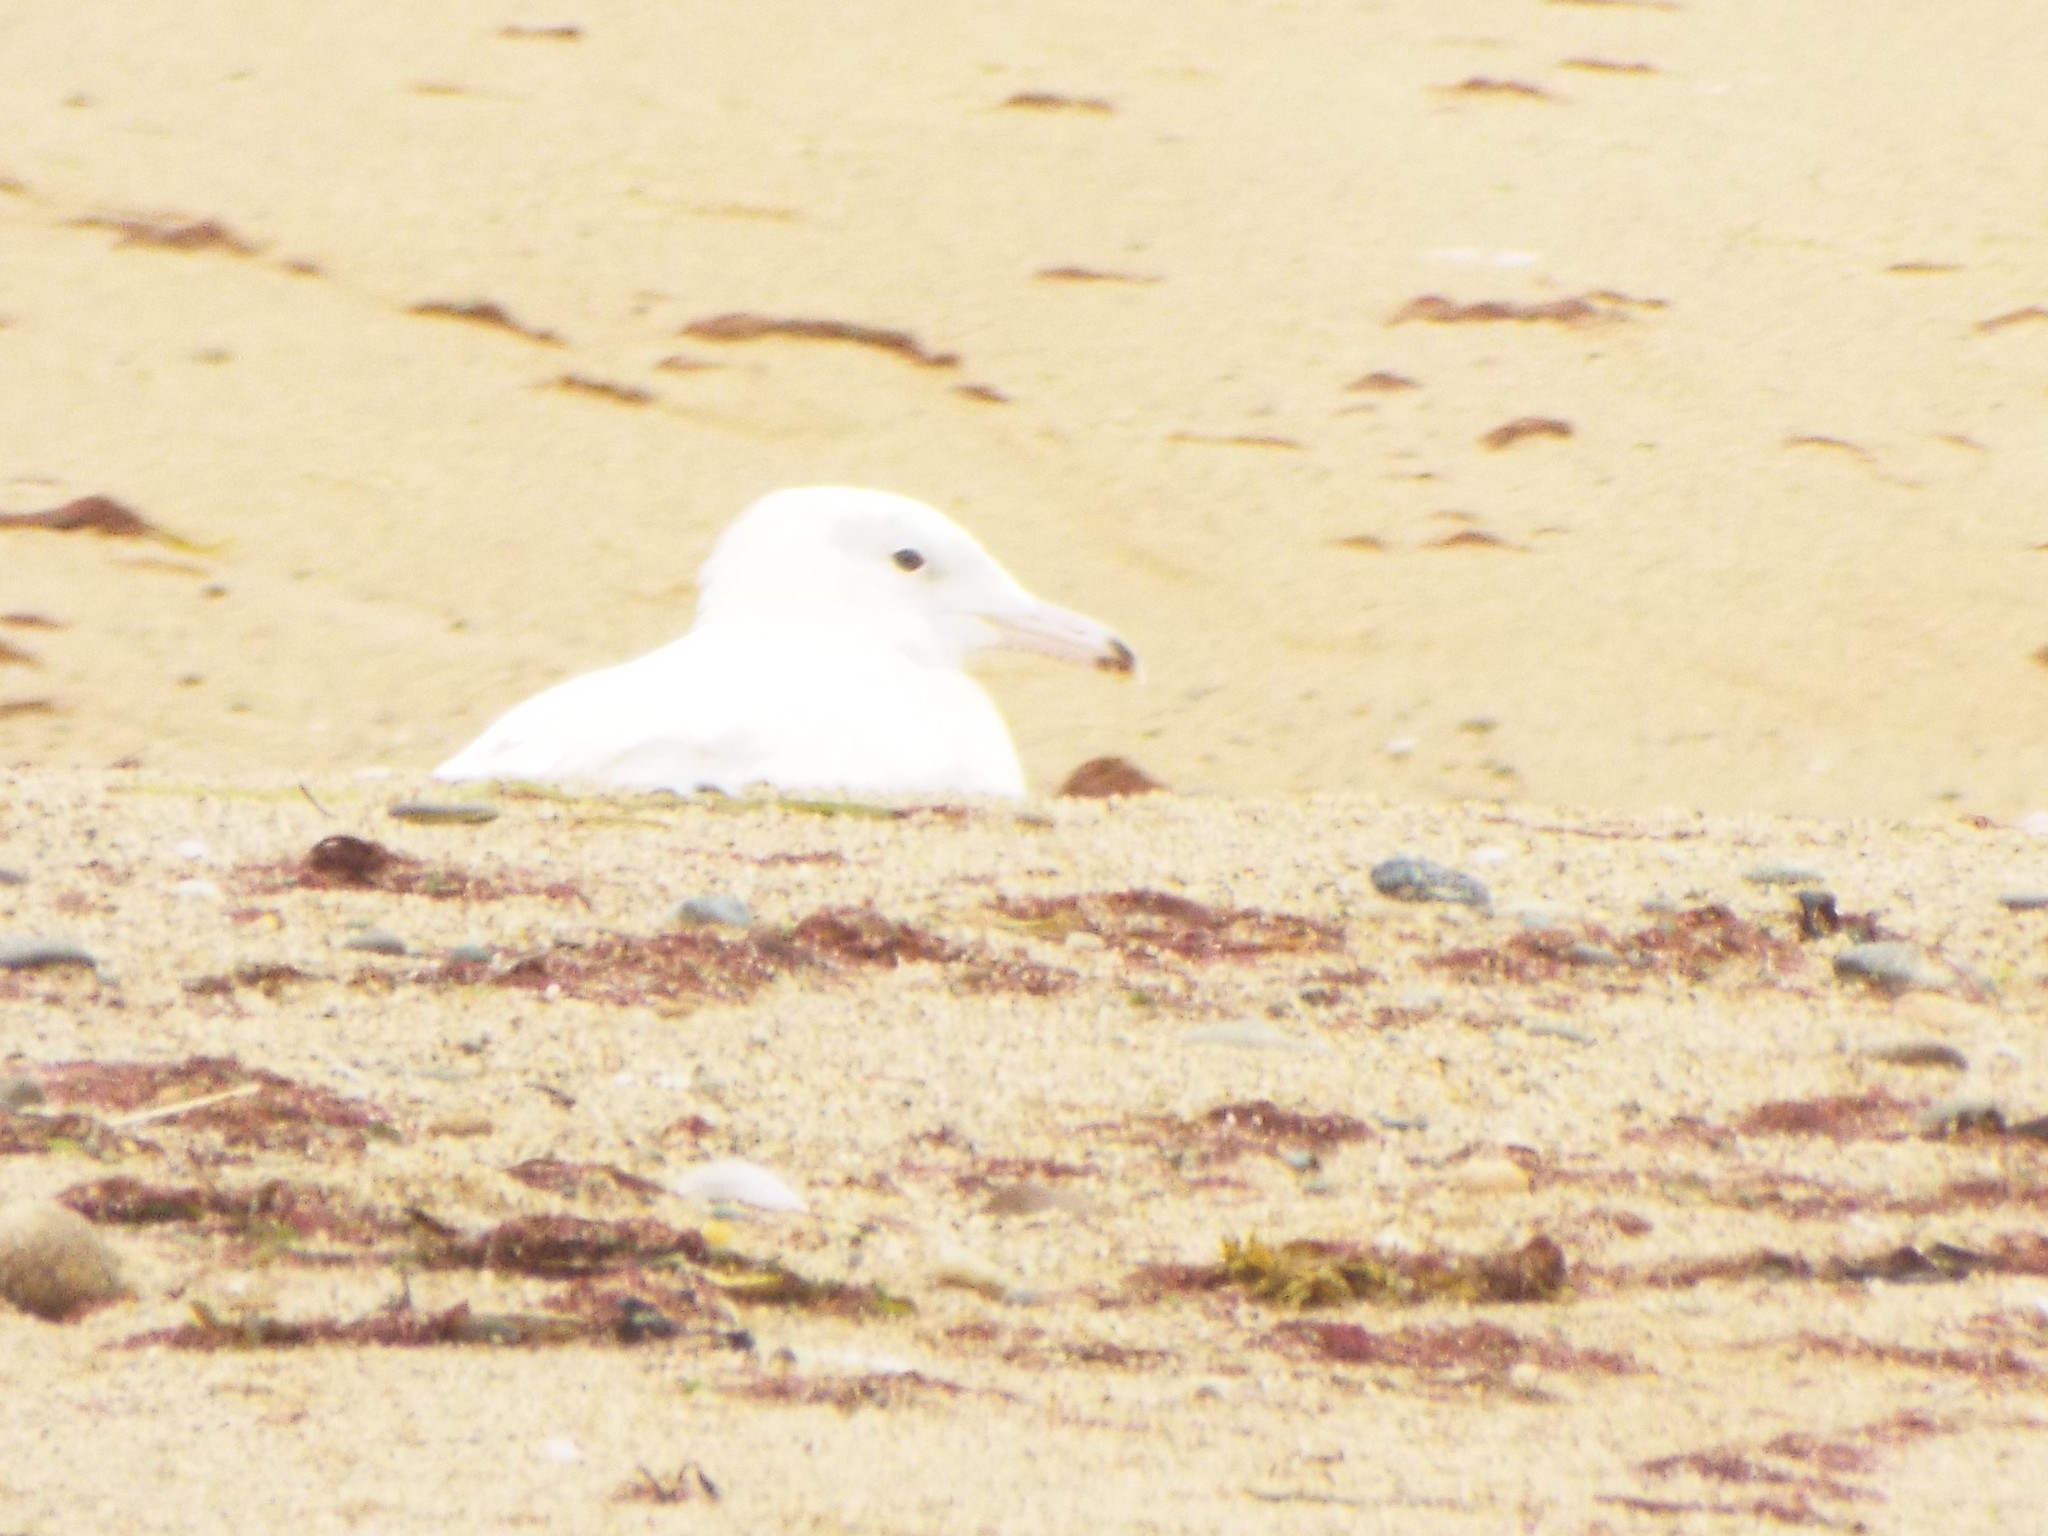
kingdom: Animalia
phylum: Chordata
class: Aves
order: Charadriiformes
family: Laridae
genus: Larus
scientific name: Larus hyperboreus
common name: Glaucous gull
